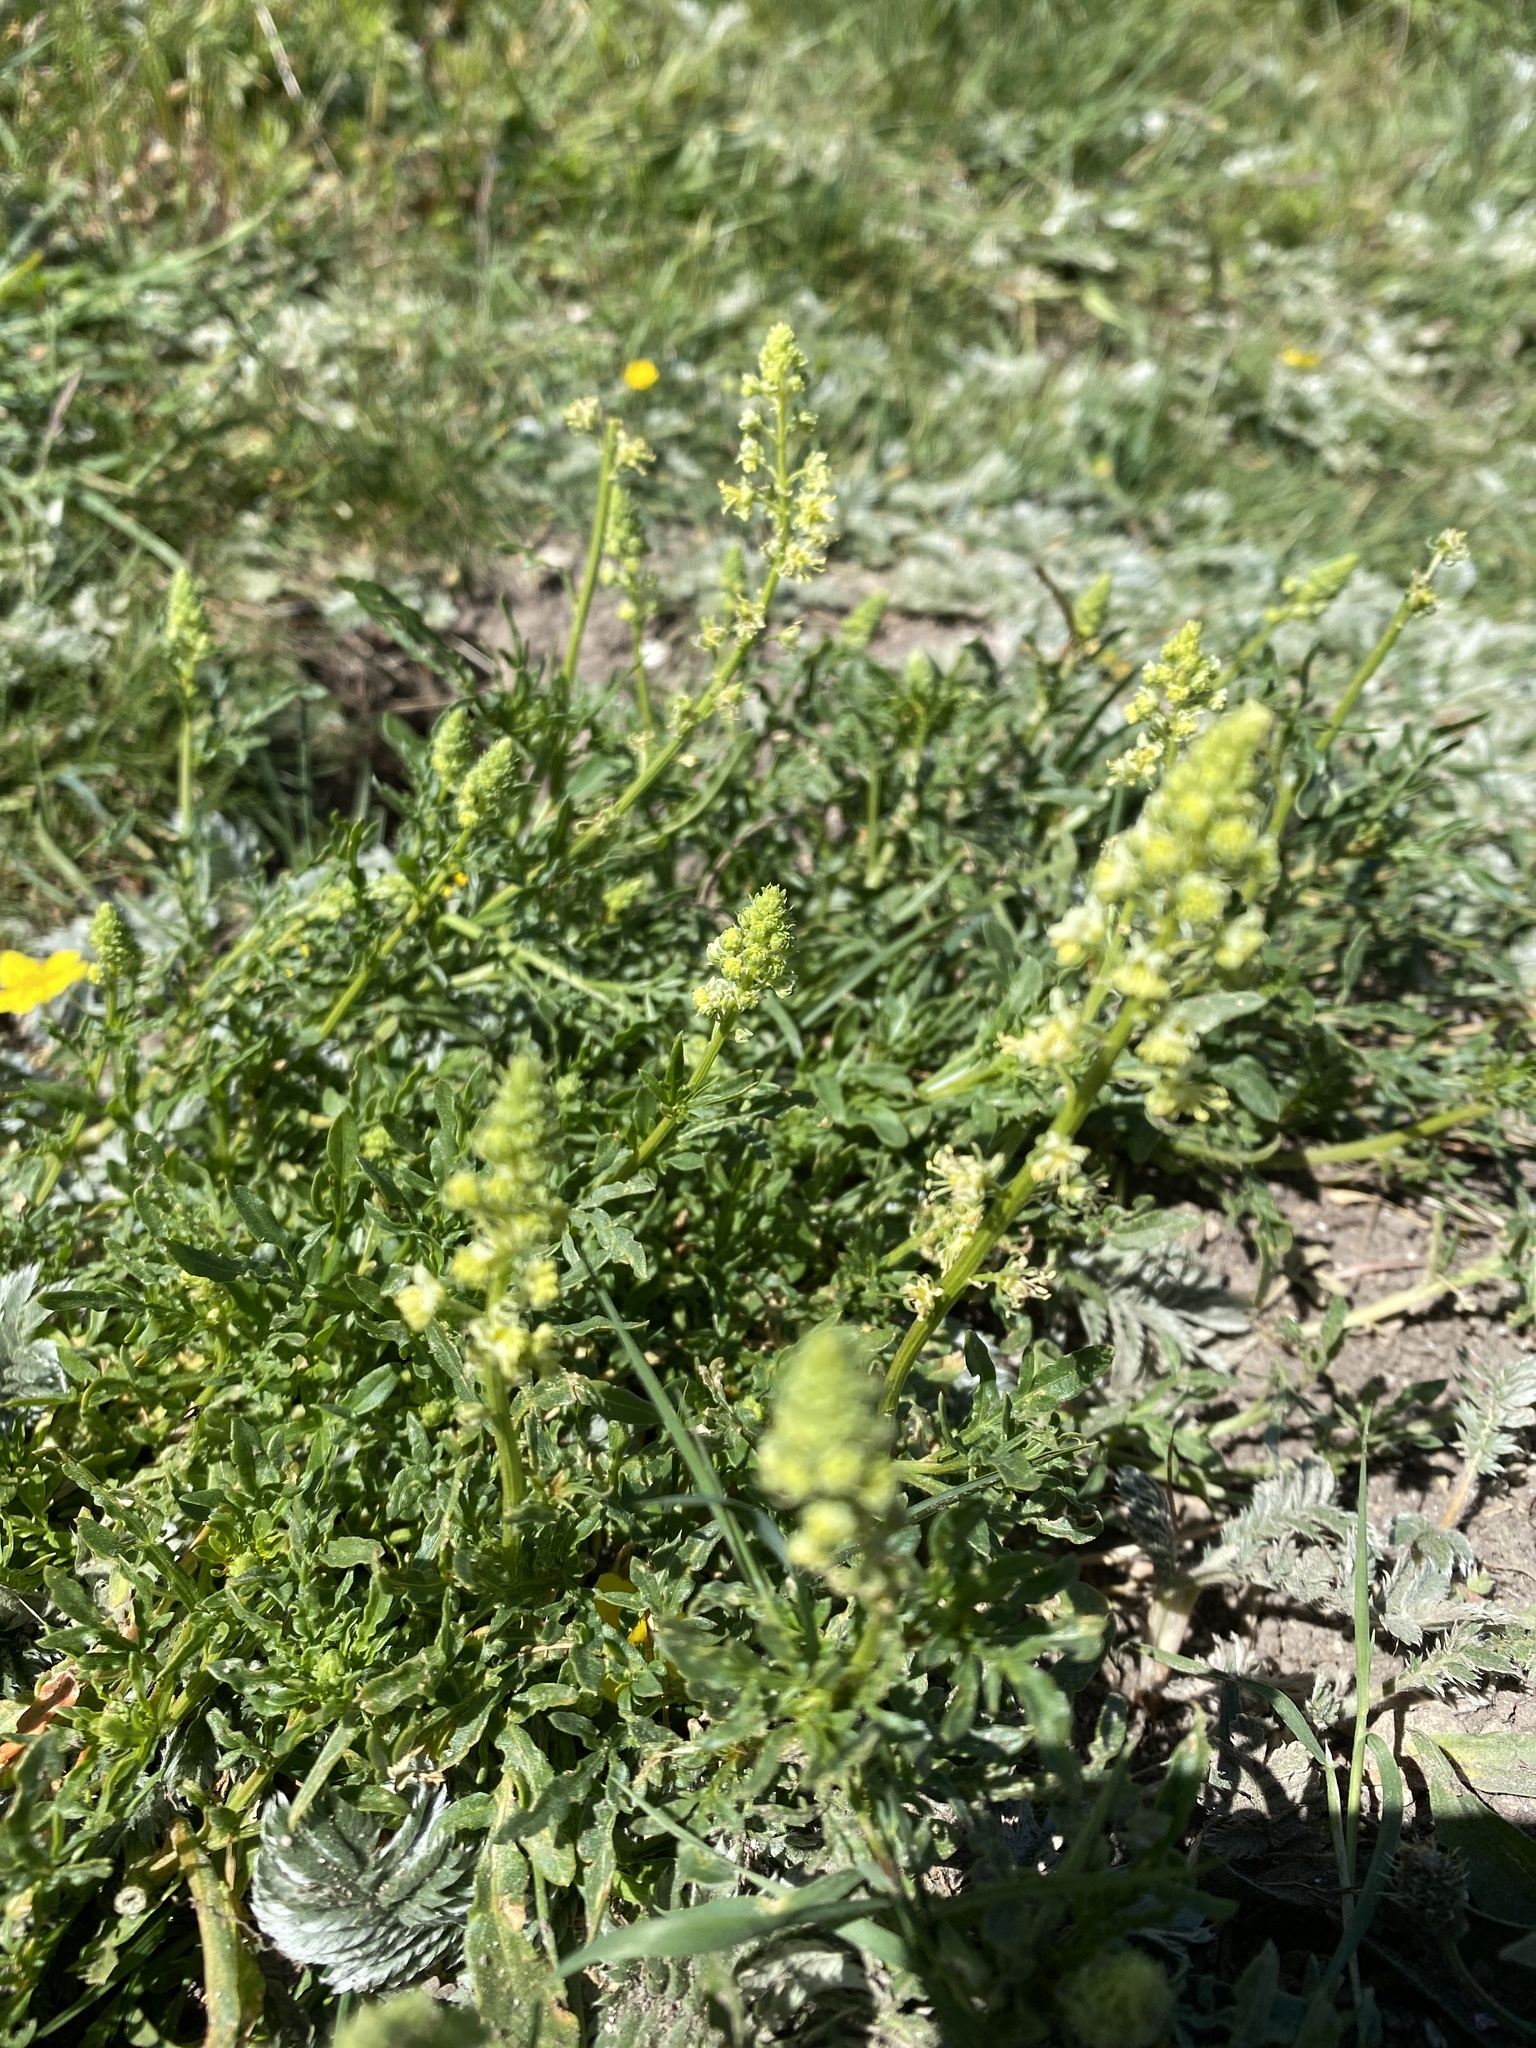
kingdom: Plantae
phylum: Tracheophyta
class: Magnoliopsida
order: Brassicales
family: Resedaceae
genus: Reseda
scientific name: Reseda lutea
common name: Wild mignonette
